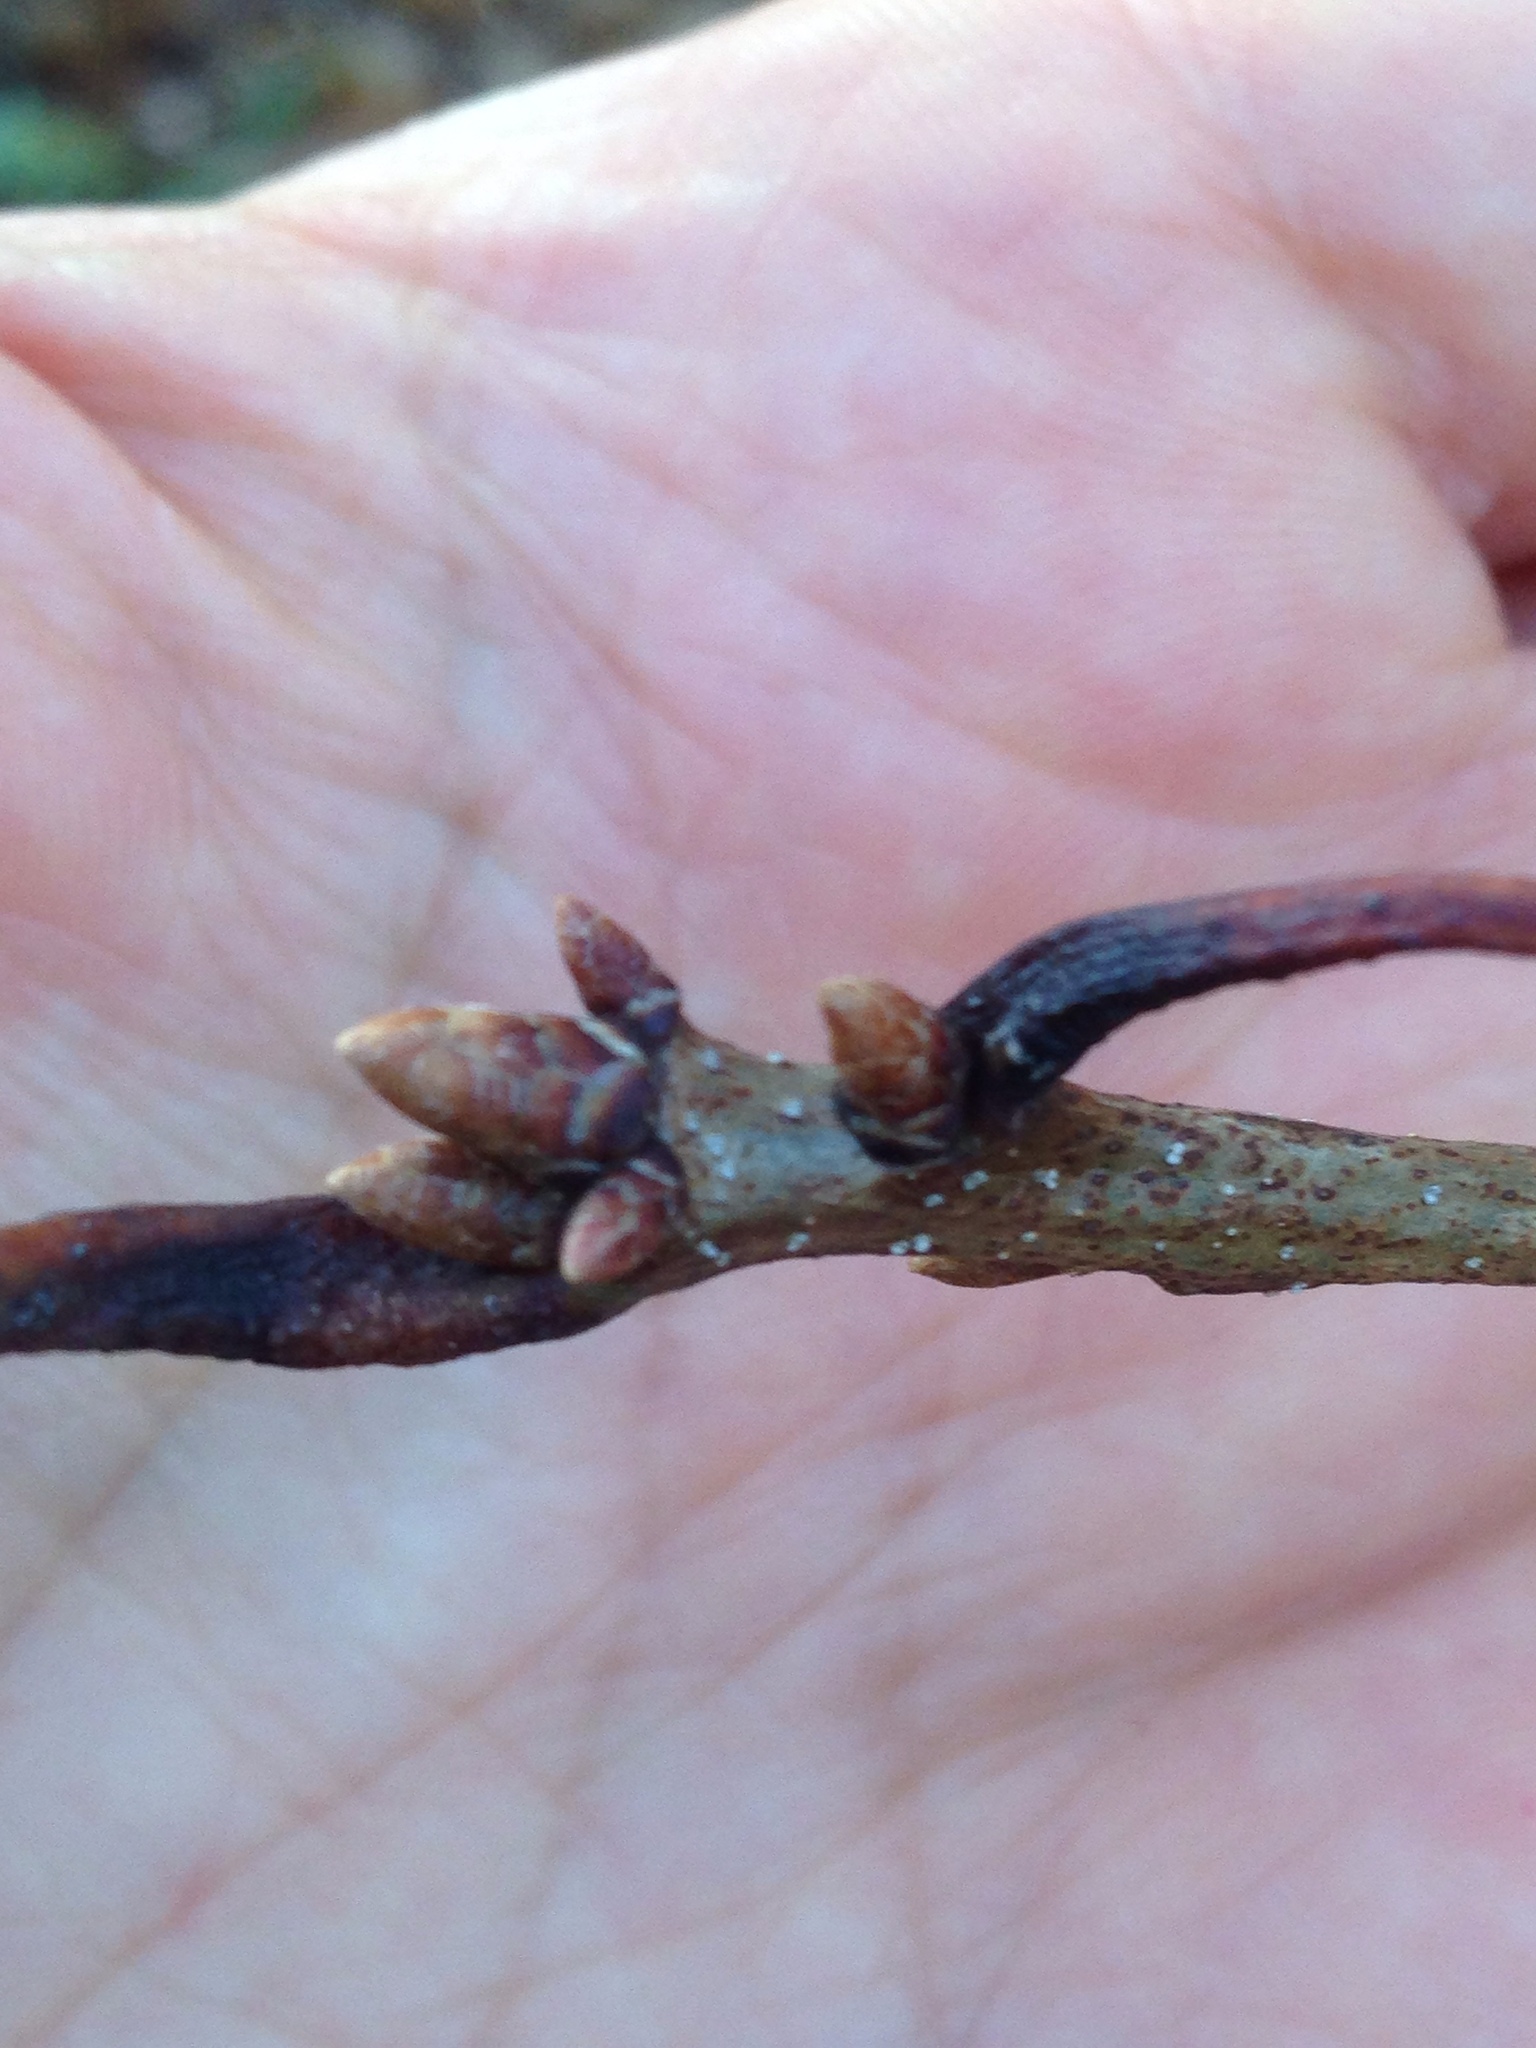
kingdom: Plantae
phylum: Tracheophyta
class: Magnoliopsida
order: Fagales
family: Fagaceae
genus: Quercus
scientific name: Quercus montana
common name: Chestnut oak
